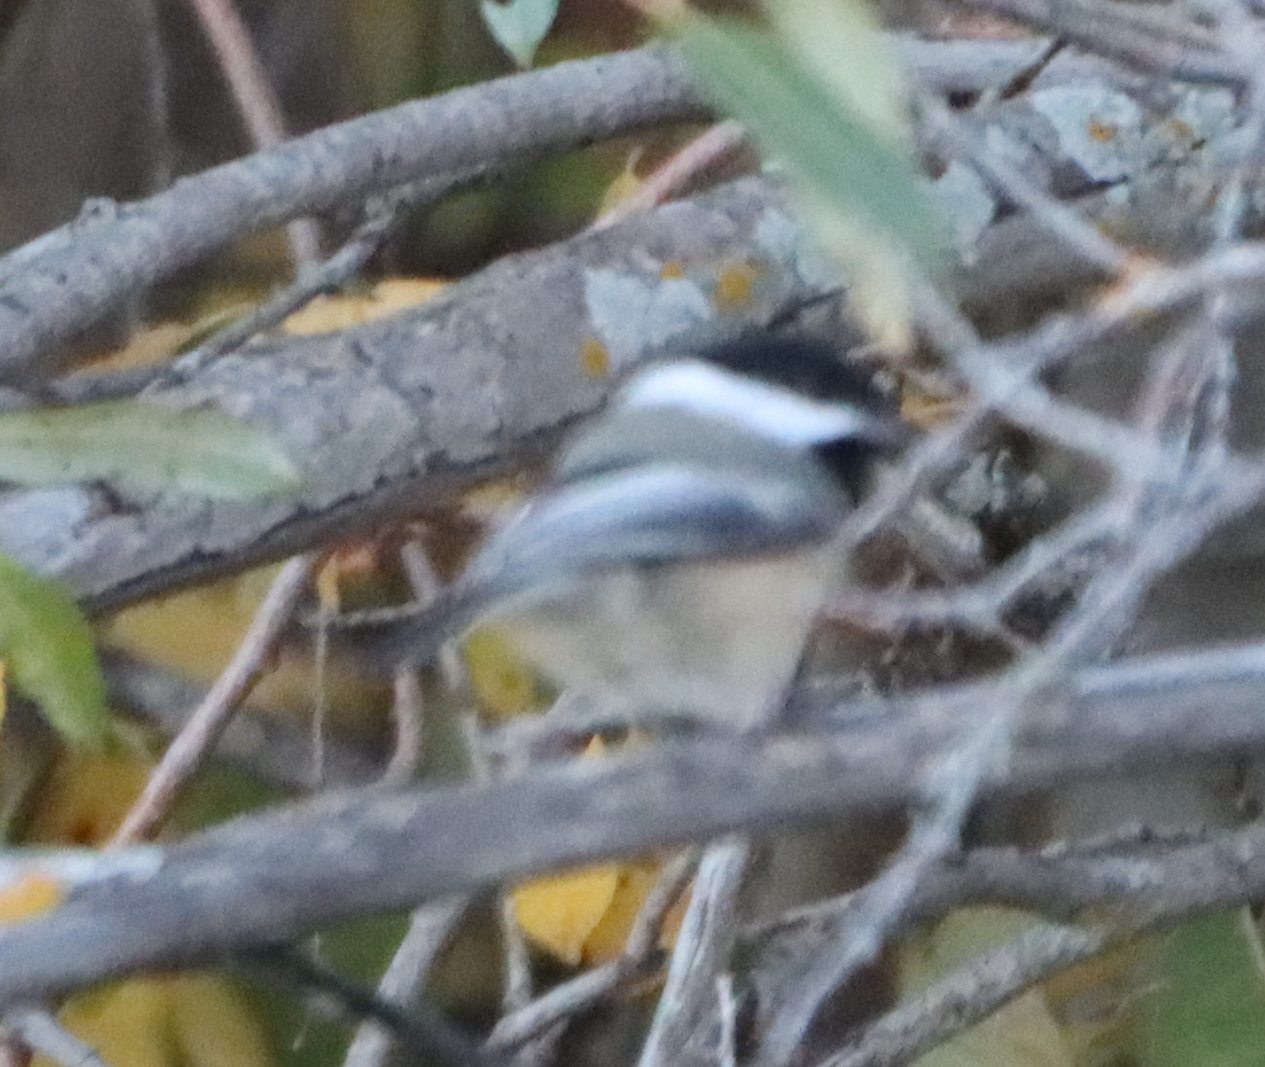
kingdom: Animalia
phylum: Chordata
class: Aves
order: Passeriformes
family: Paridae
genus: Poecile
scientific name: Poecile atricapillus
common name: Black-capped chickadee
